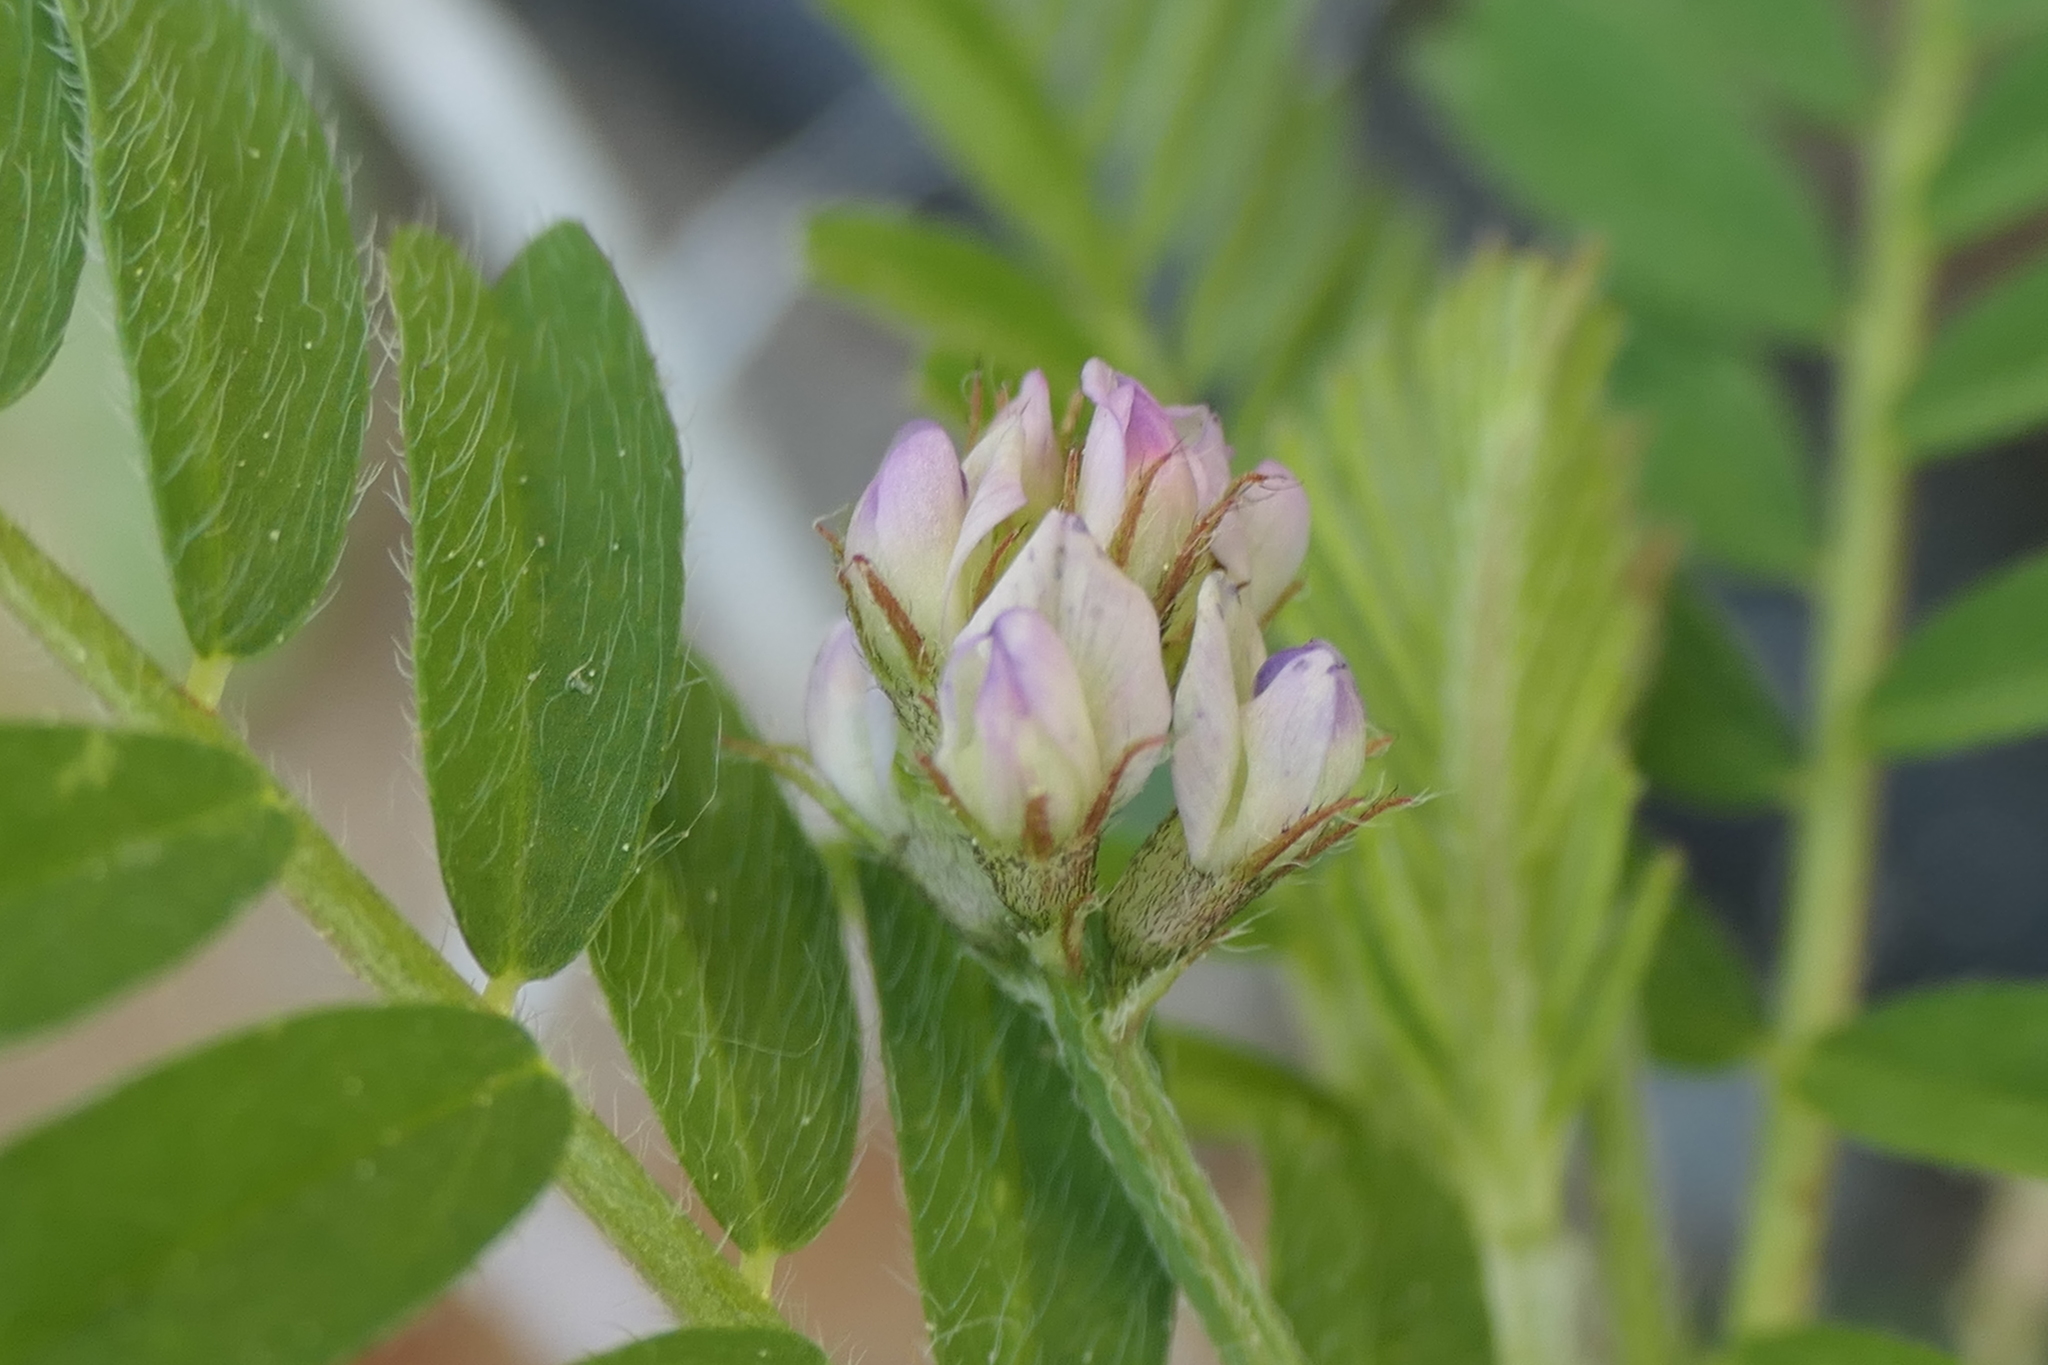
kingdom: Plantae
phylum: Tracheophyta
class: Magnoliopsida
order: Fabales
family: Fabaceae
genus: Biserrula
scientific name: Biserrula pelecinus
